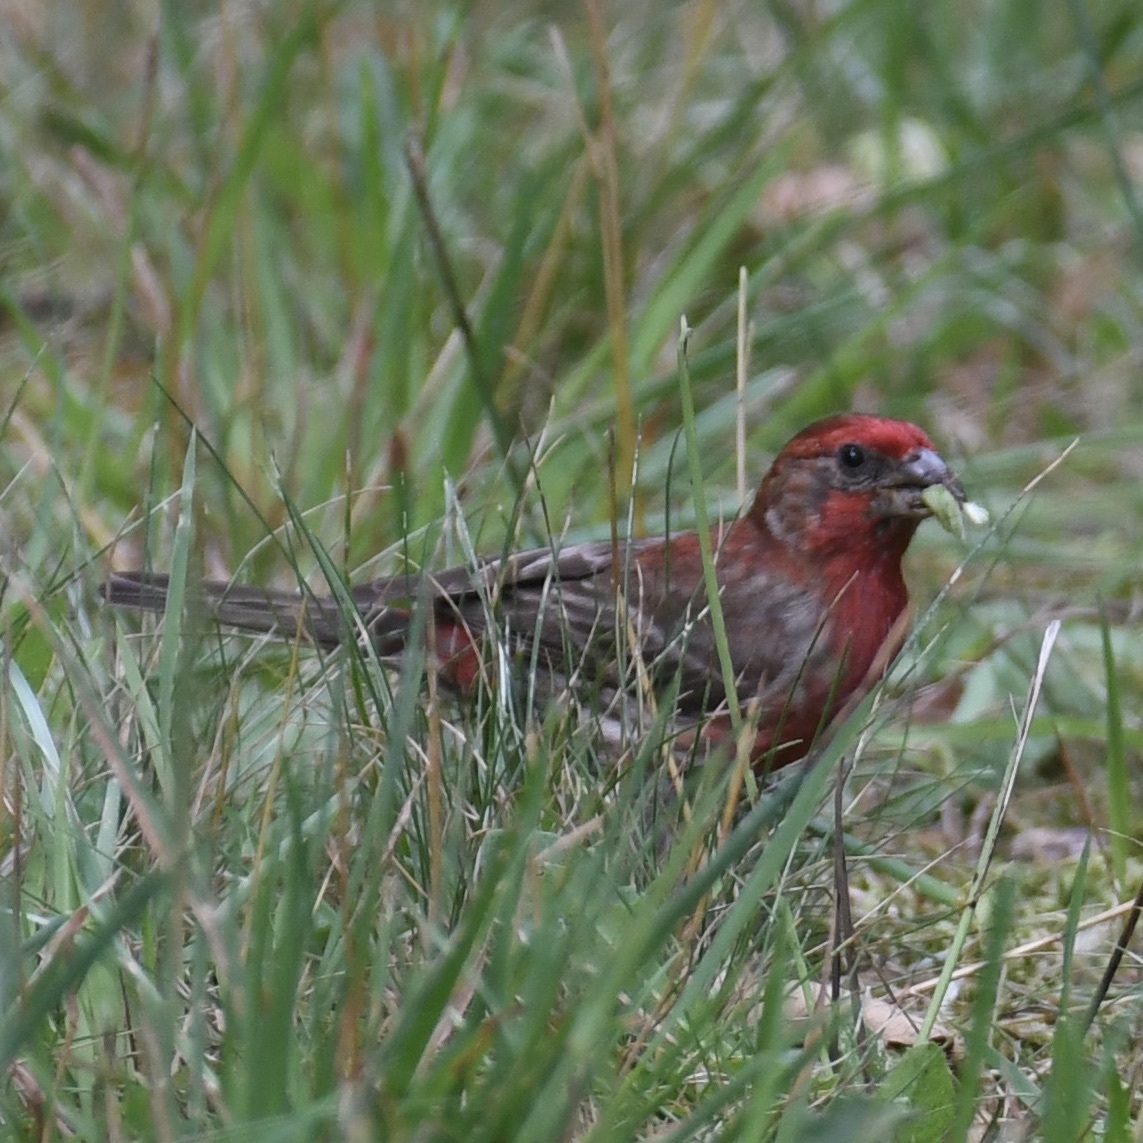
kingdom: Animalia
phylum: Chordata
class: Aves
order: Passeriformes
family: Fringillidae
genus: Haemorhous
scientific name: Haemorhous mexicanus
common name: House finch
